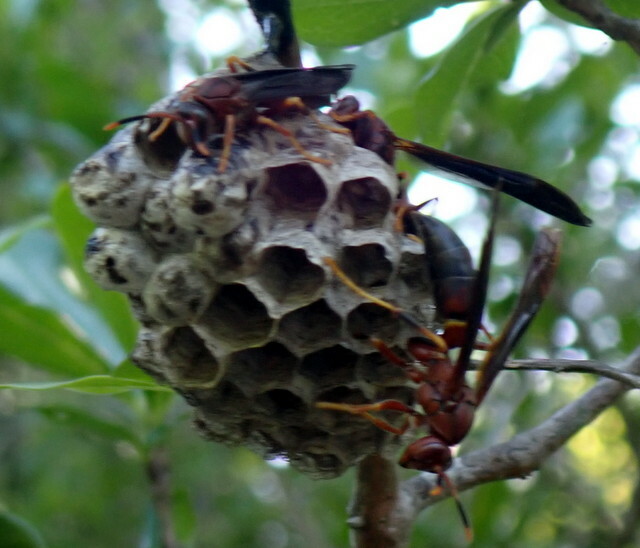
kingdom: Animalia
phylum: Arthropoda
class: Insecta
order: Hymenoptera
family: Eumenidae
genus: Polistes
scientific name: Polistes annularis
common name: Ringed paper wasp
